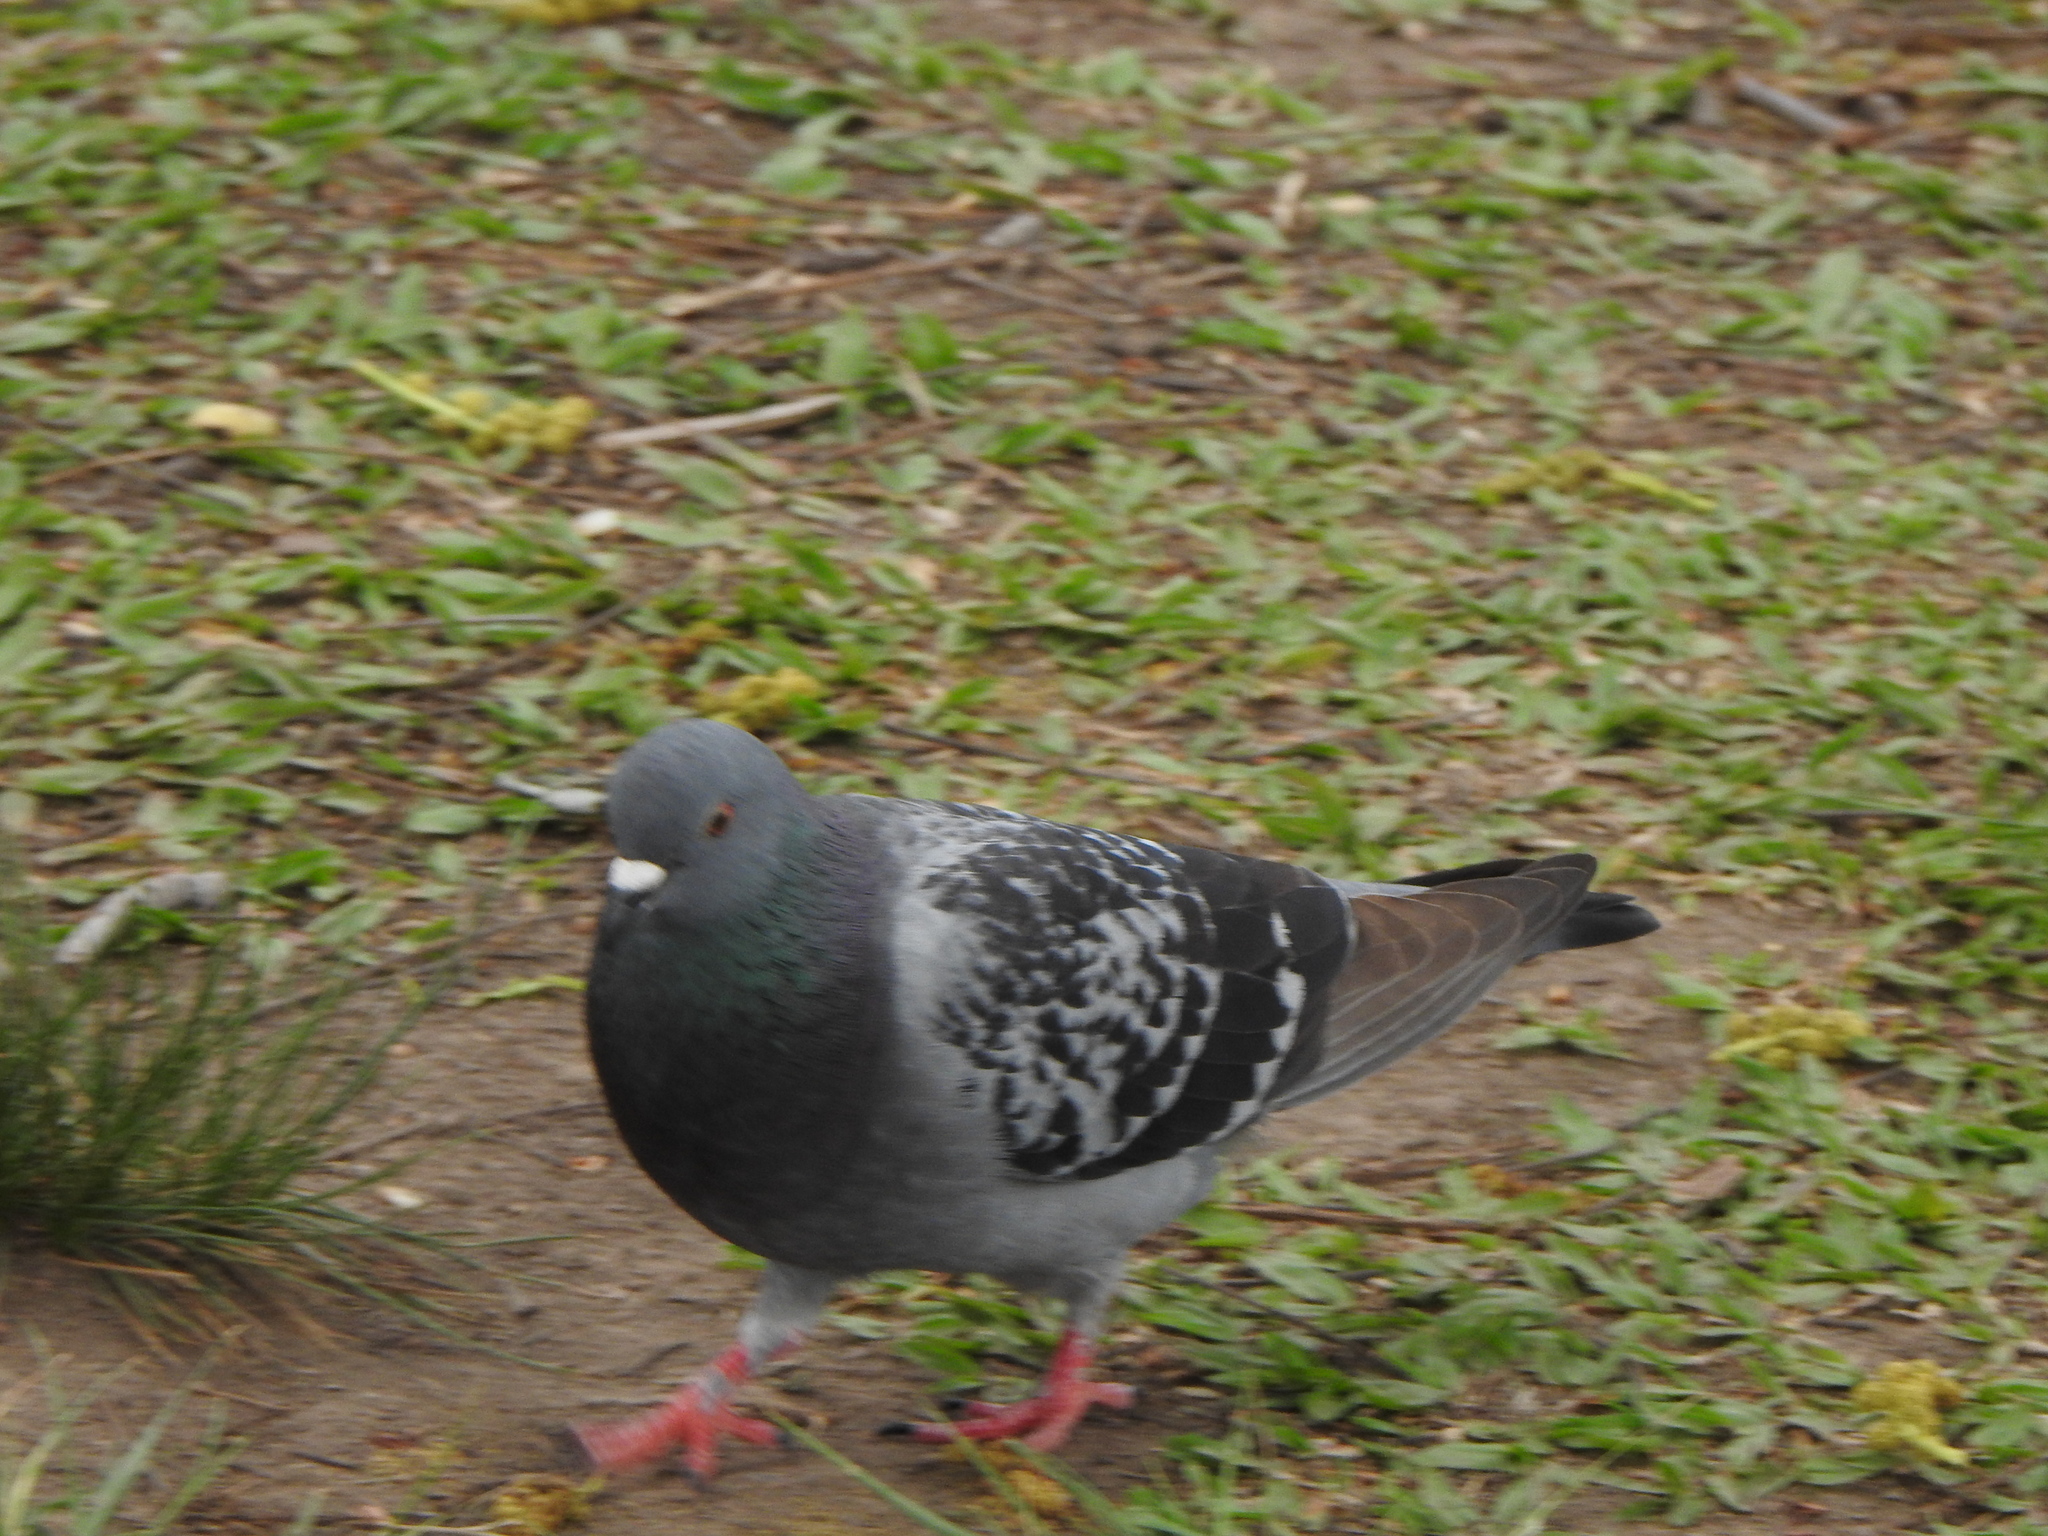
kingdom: Animalia
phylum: Chordata
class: Aves
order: Columbiformes
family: Columbidae
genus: Columba
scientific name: Columba livia
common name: Rock pigeon
